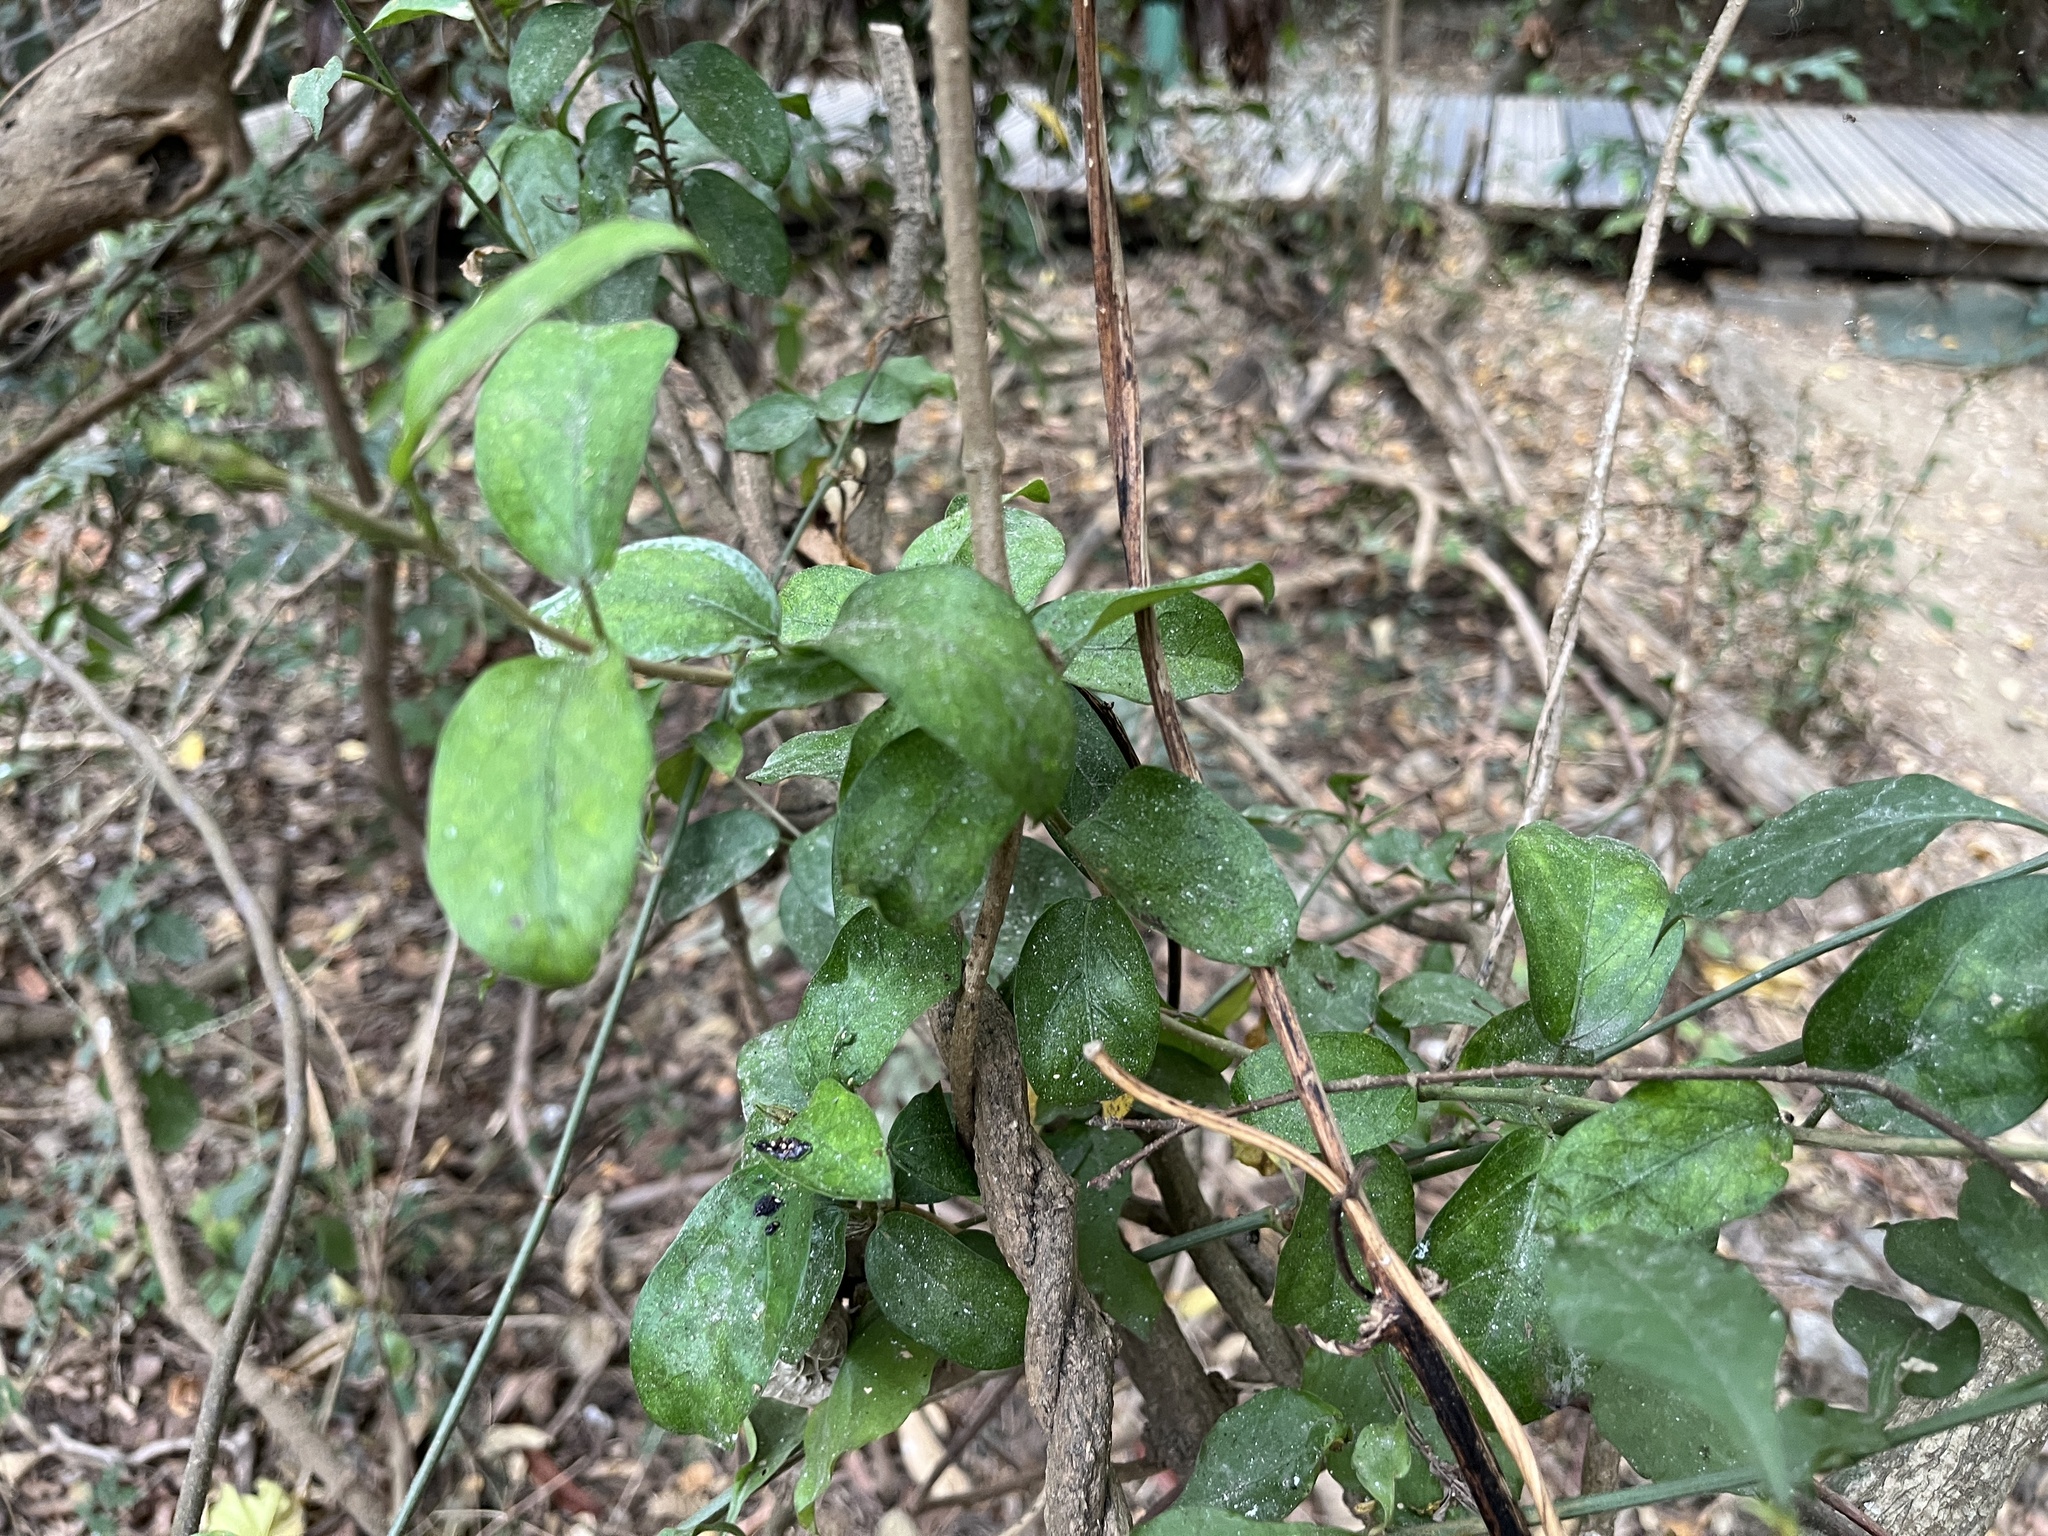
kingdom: Plantae
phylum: Tracheophyta
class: Magnoliopsida
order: Gentianales
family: Apocynaceae
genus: Gymnema
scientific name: Gymnema sylvestre
